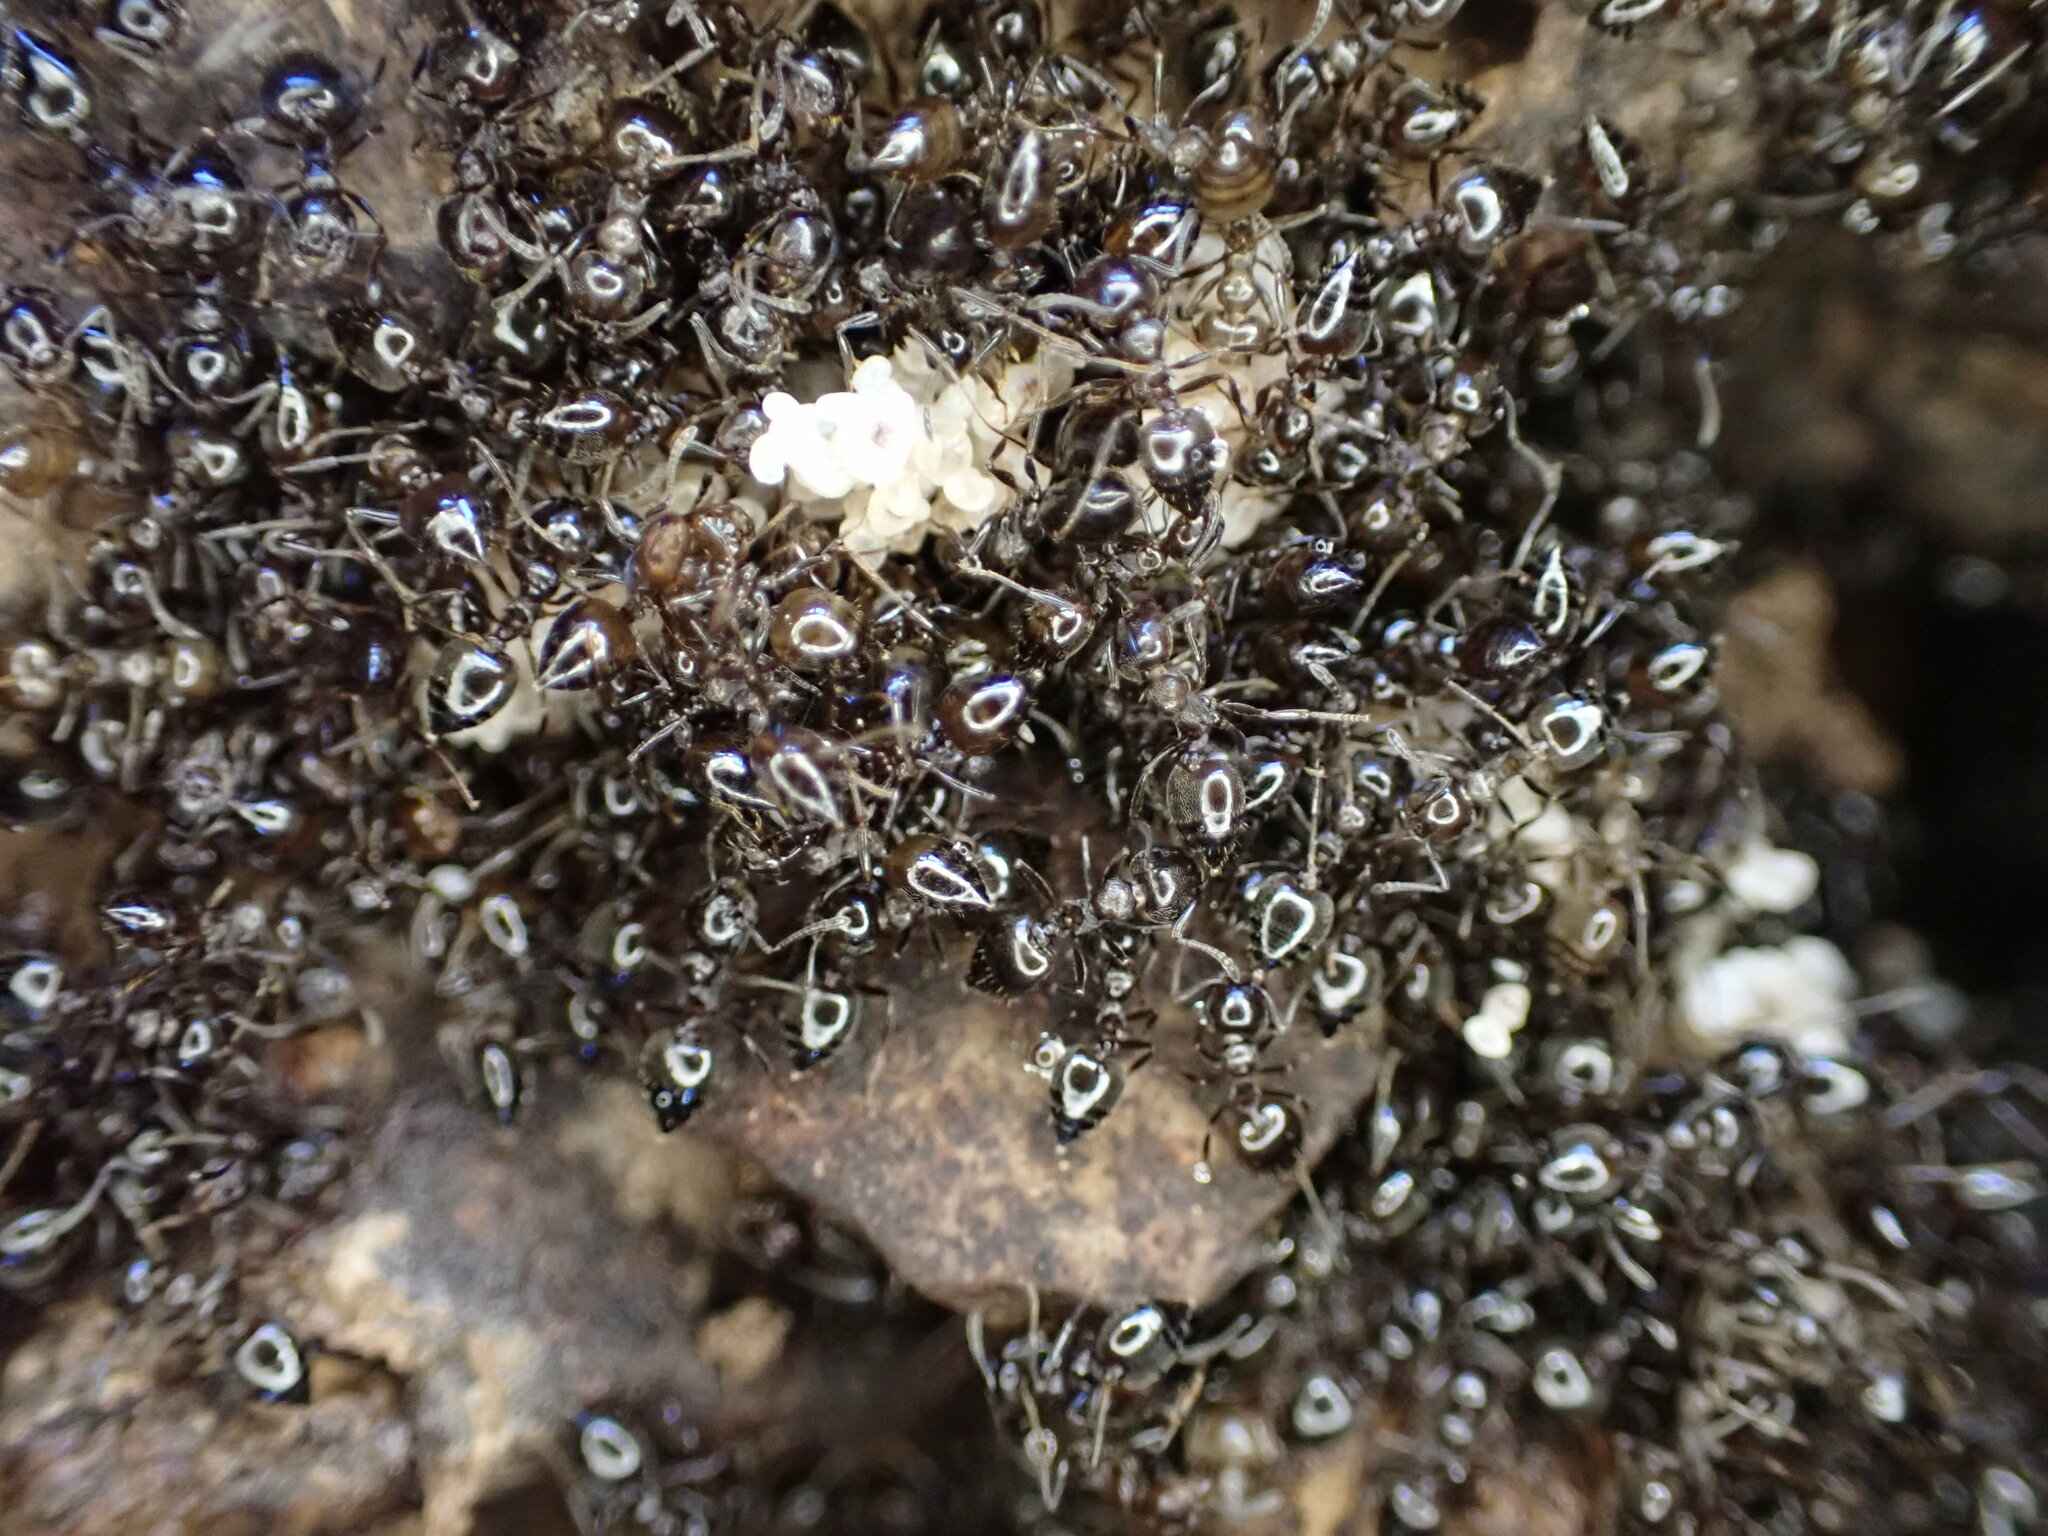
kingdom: Animalia
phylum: Arthropoda
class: Insecta
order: Hymenoptera
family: Formicidae
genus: Crematogaster
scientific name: Crematogaster auberti
